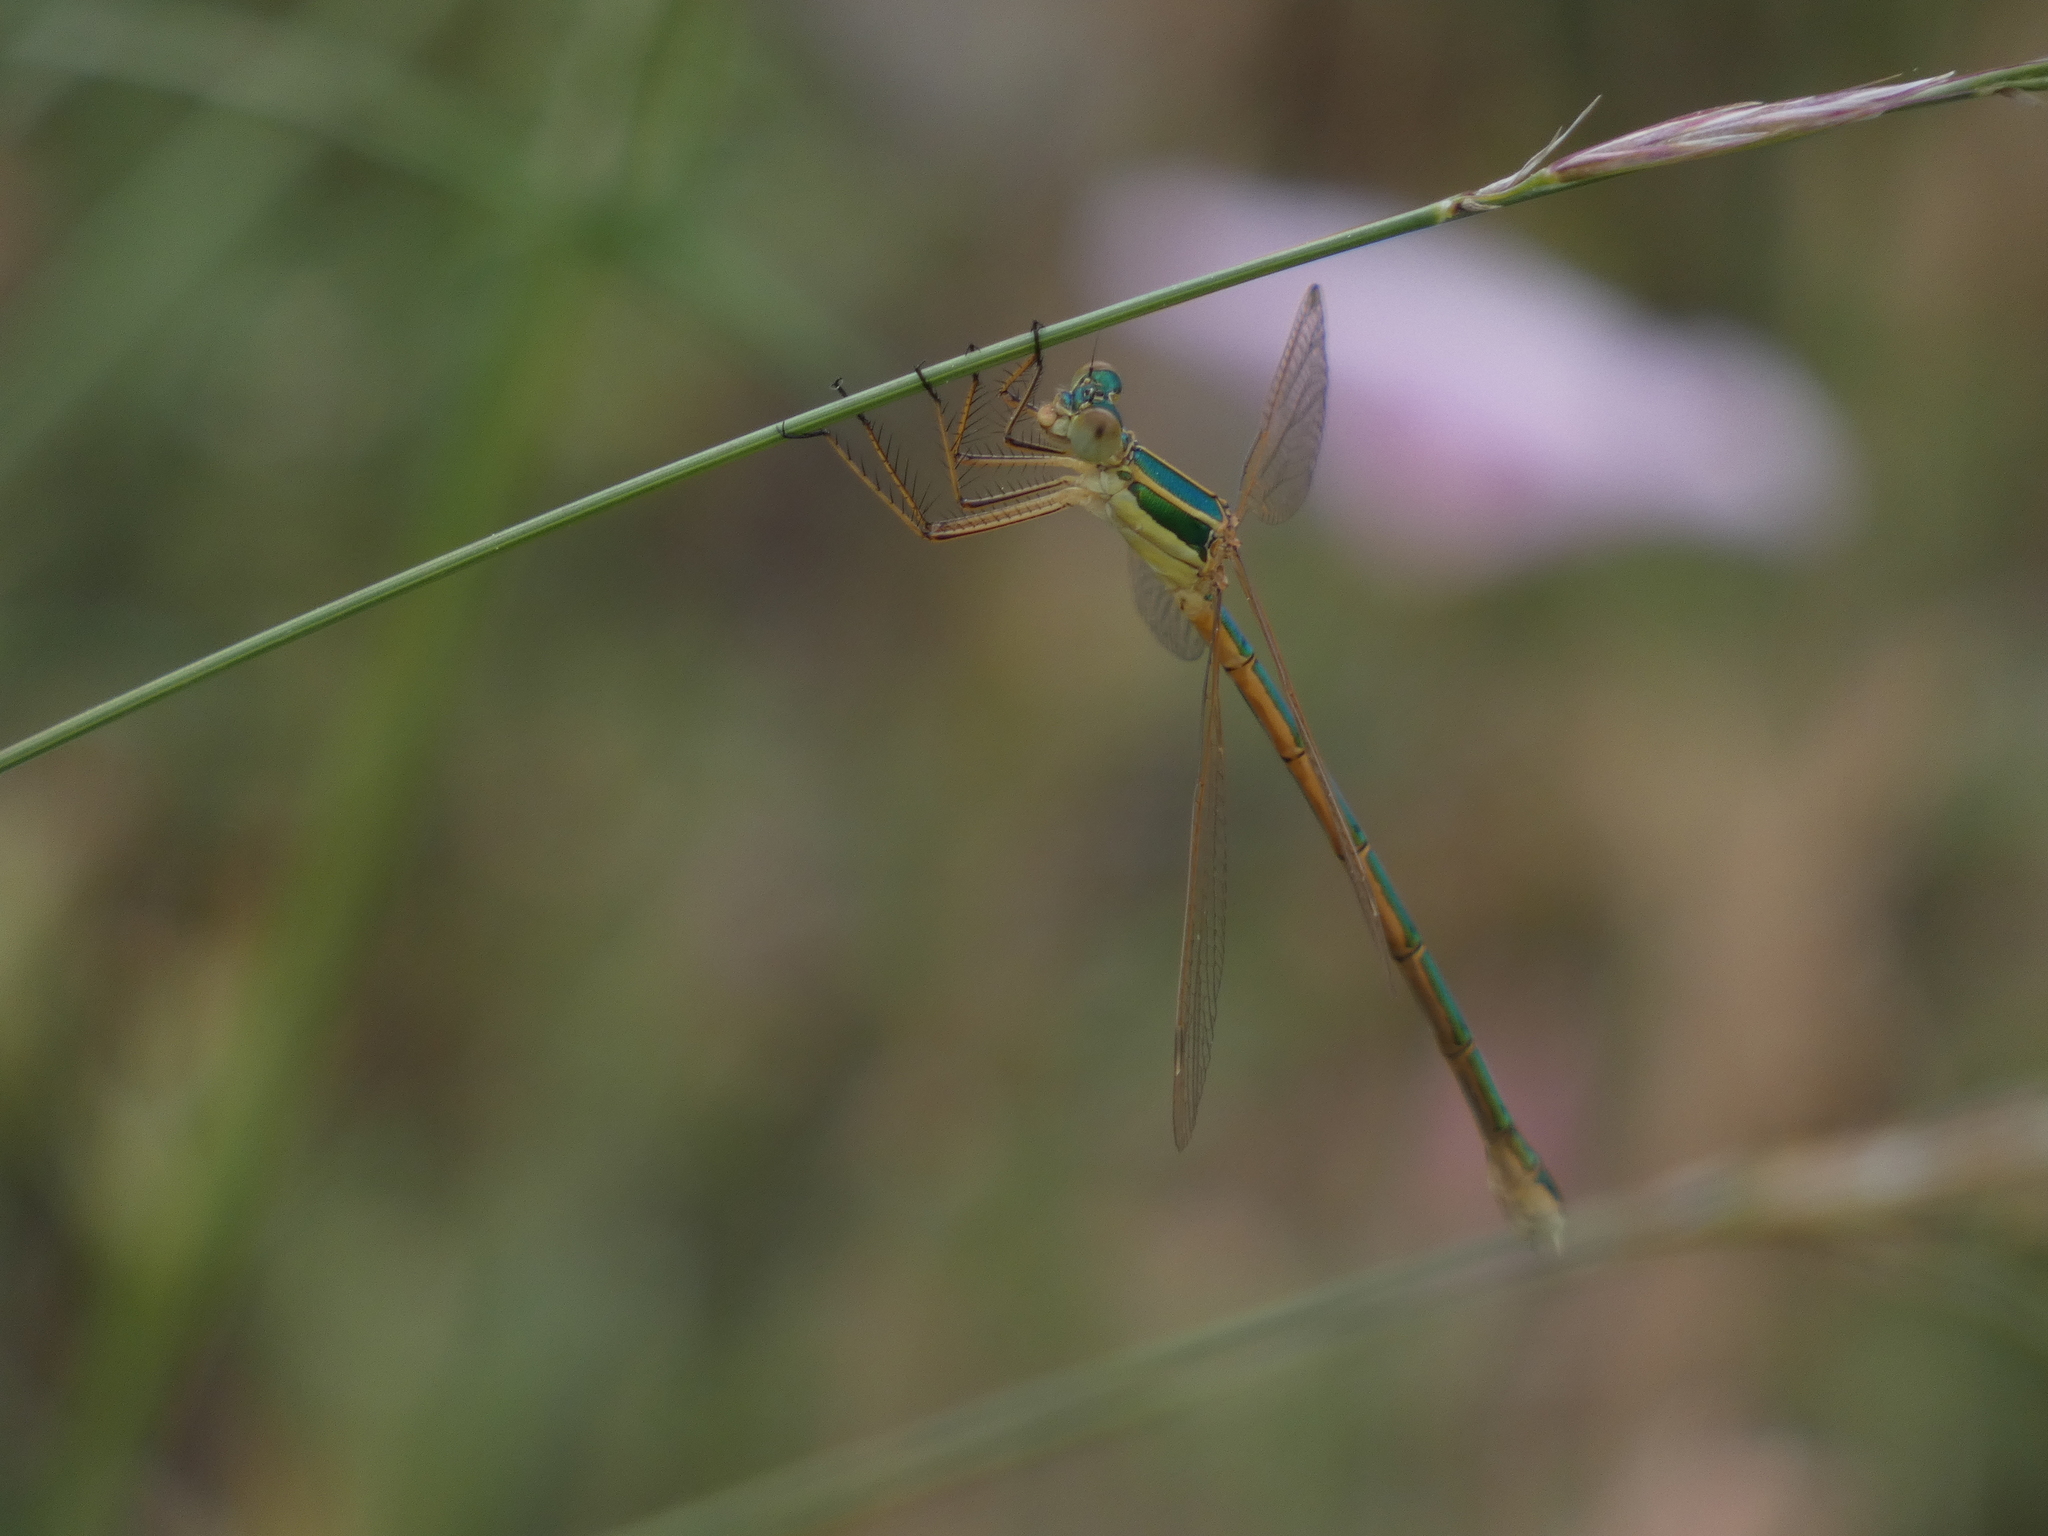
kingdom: Animalia
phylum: Arthropoda
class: Insecta
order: Odonata
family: Lestidae
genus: Lestes
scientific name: Lestes barbarus
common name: Migrant spreadwing
